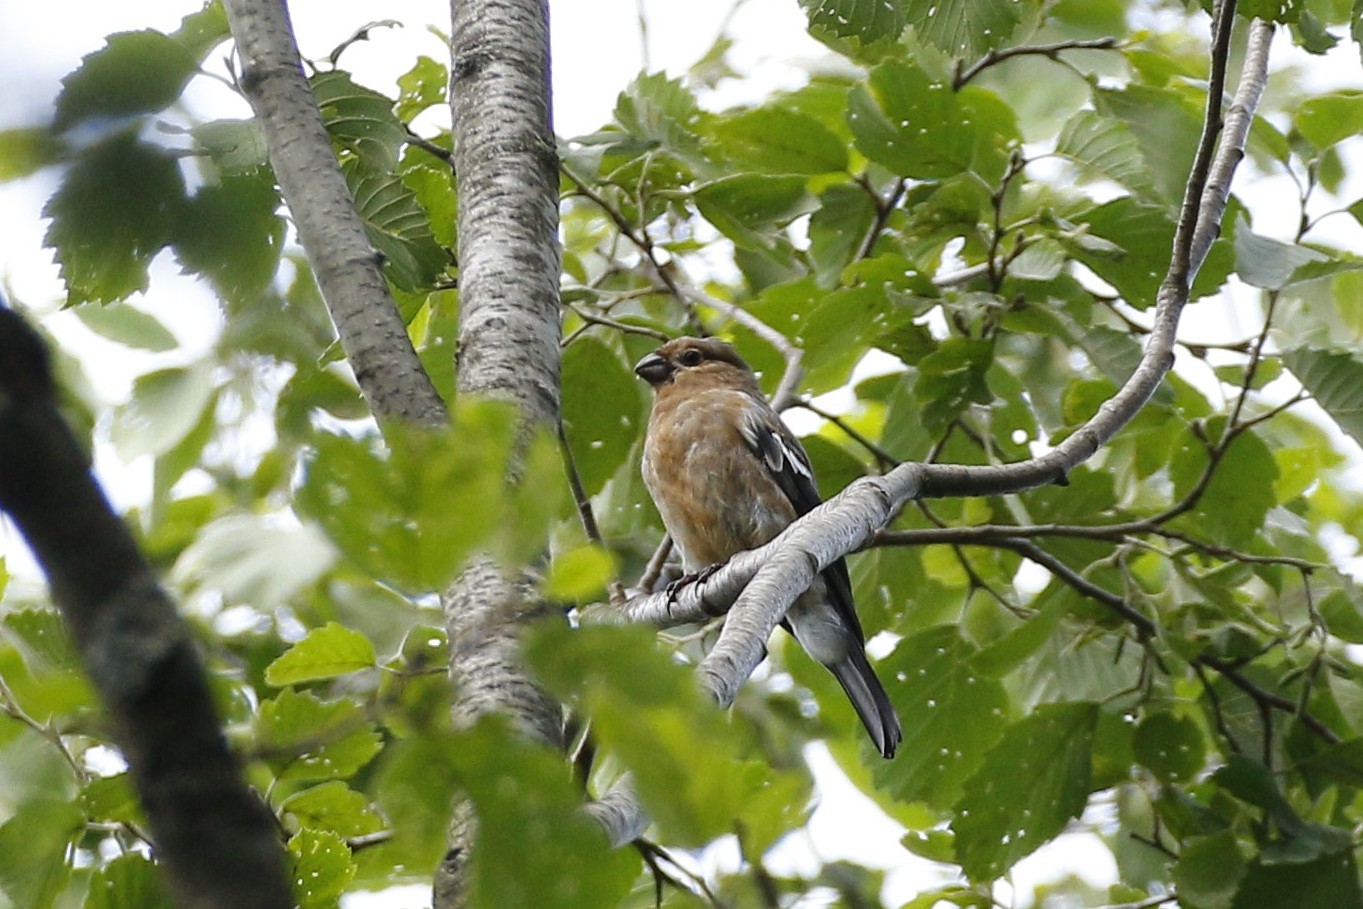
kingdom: Animalia
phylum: Chordata
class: Aves
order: Passeriformes
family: Fringillidae
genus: Pyrrhula
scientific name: Pyrrhula pyrrhula
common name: Eurasian bullfinch
